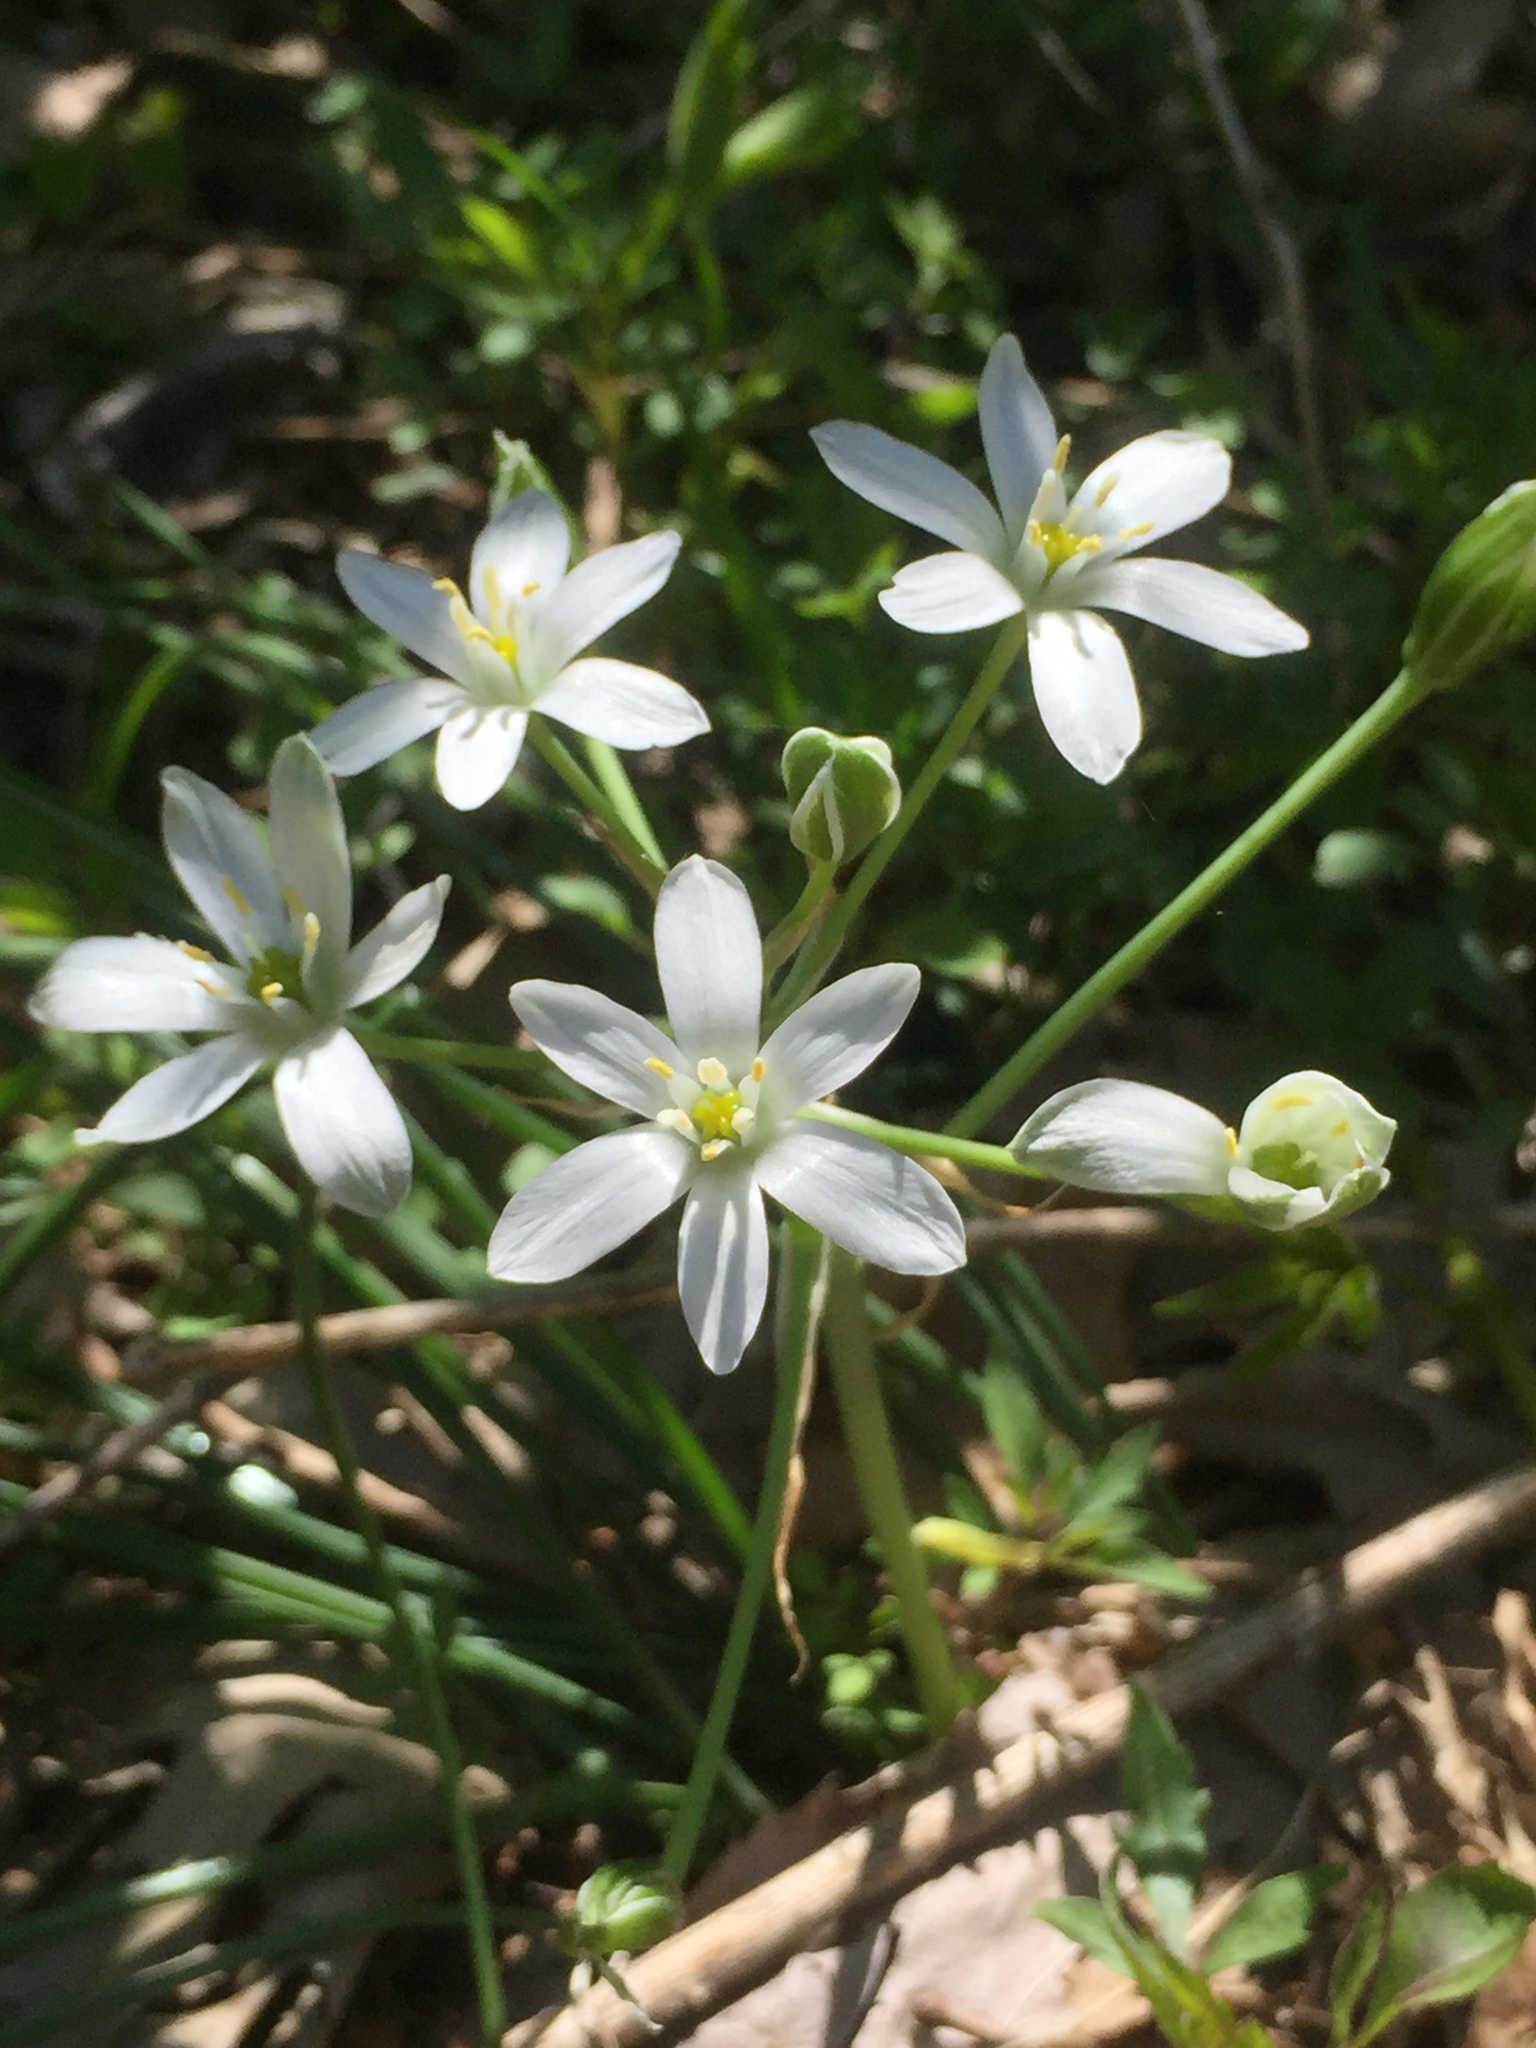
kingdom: Plantae
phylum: Tracheophyta
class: Liliopsida
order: Asparagales
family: Asparagaceae
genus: Ornithogalum
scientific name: Ornithogalum umbellatum
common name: Garden star-of-bethlehem
